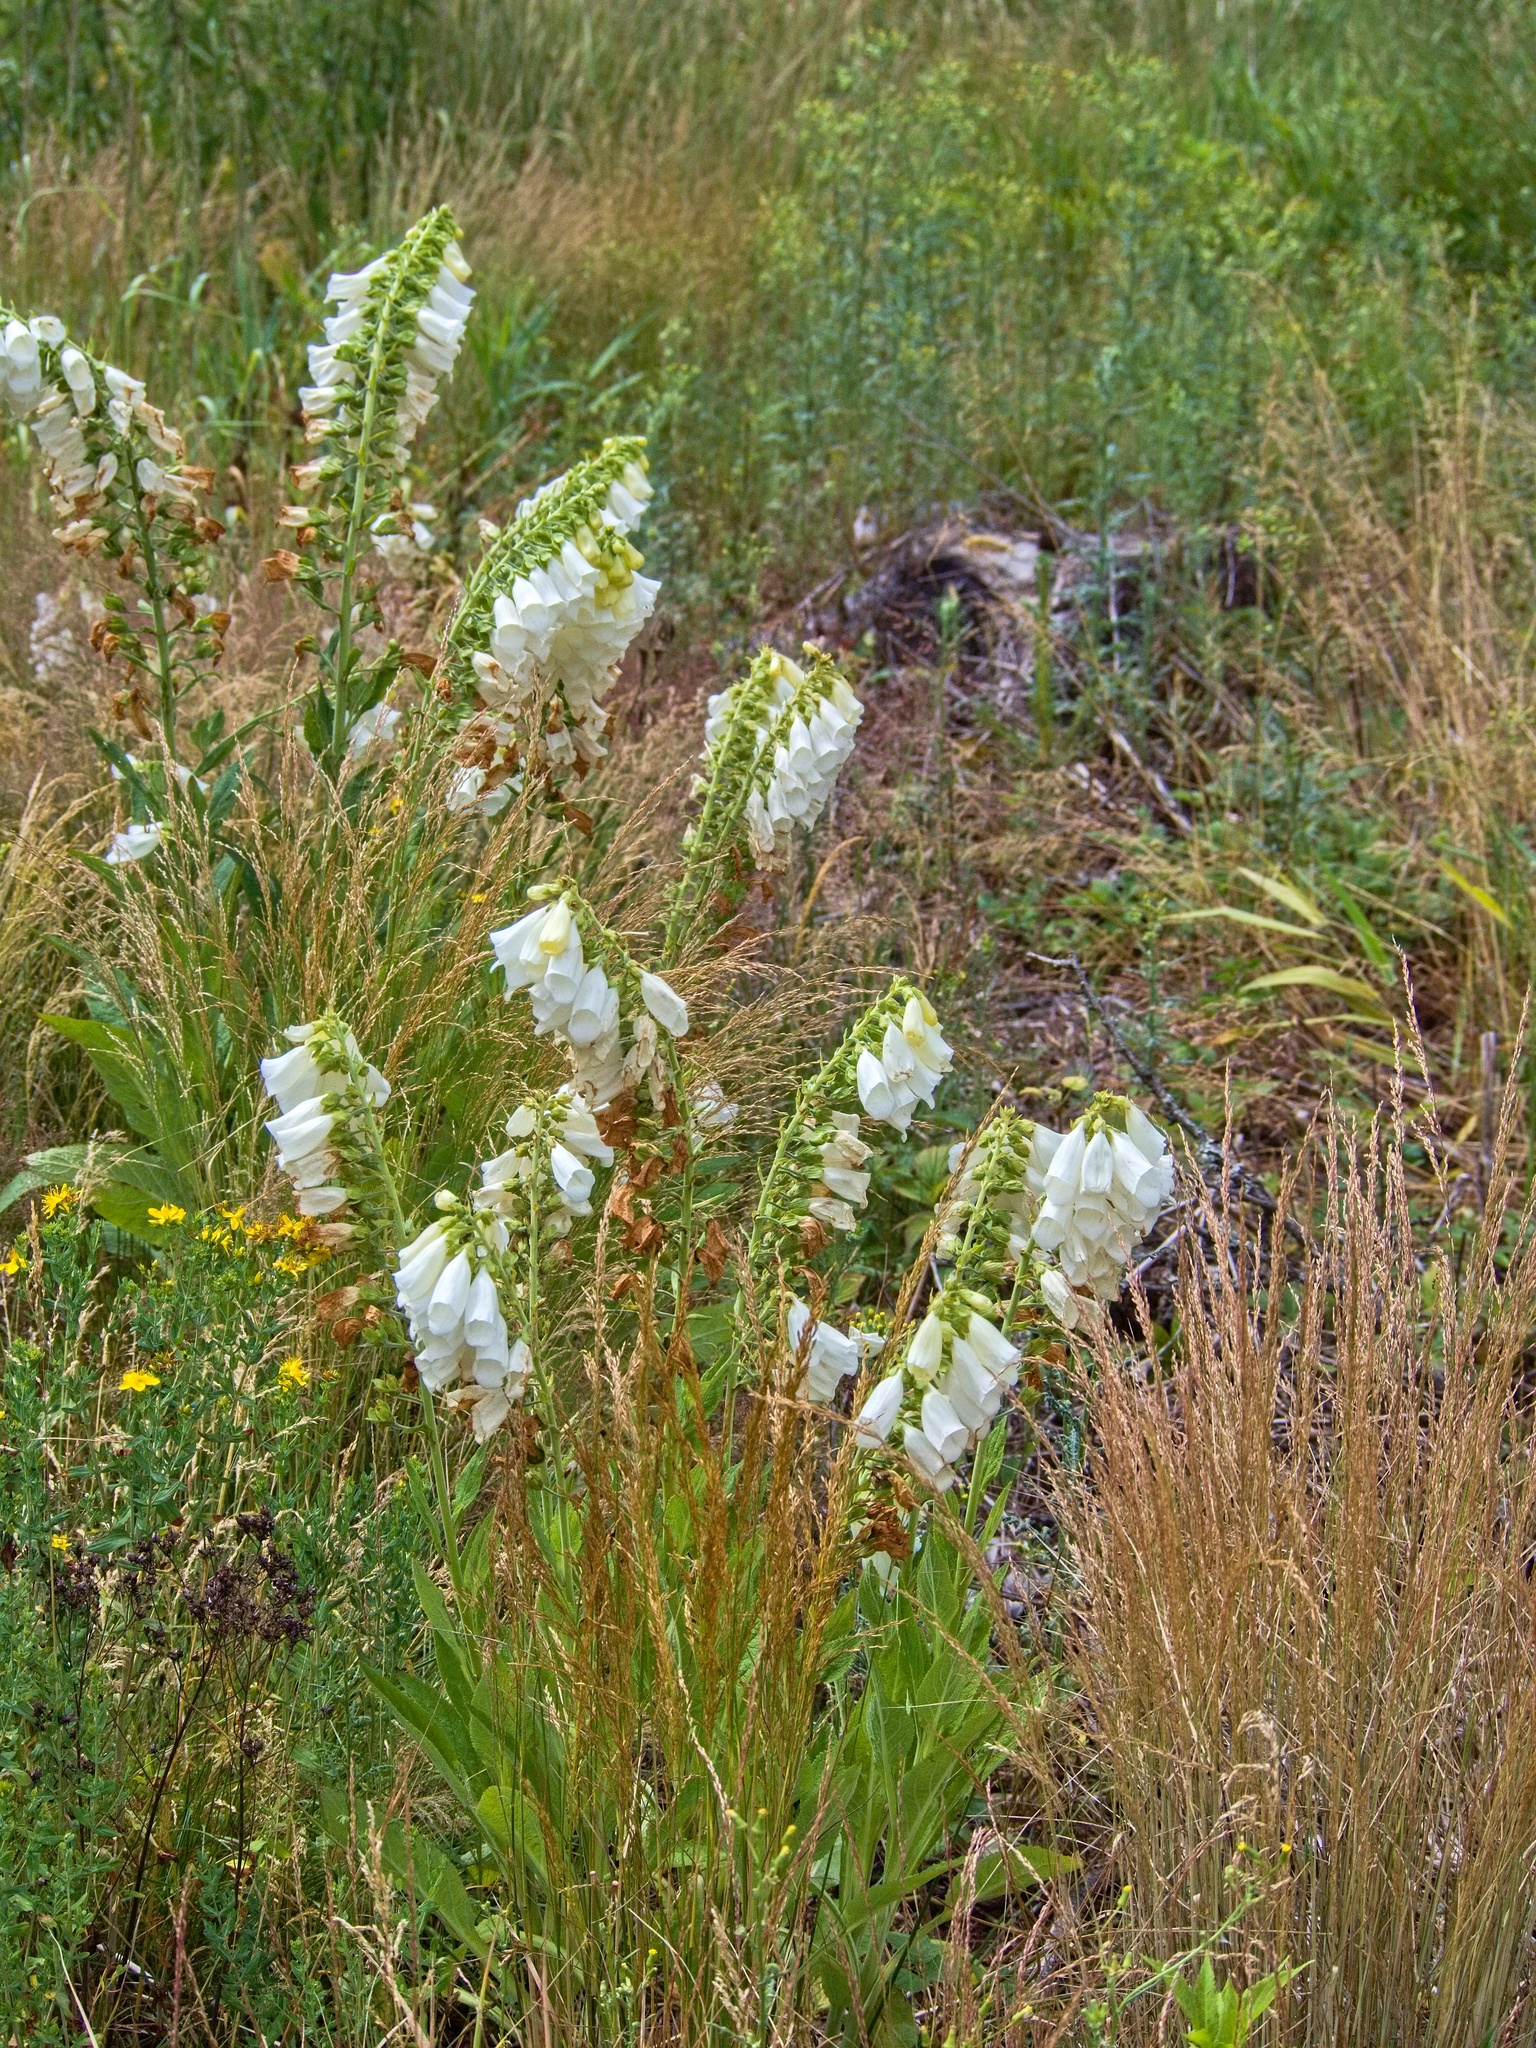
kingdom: Plantae
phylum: Tracheophyta
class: Magnoliopsida
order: Lamiales
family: Plantaginaceae
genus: Digitalis
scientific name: Digitalis purpurea
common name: Foxglove
